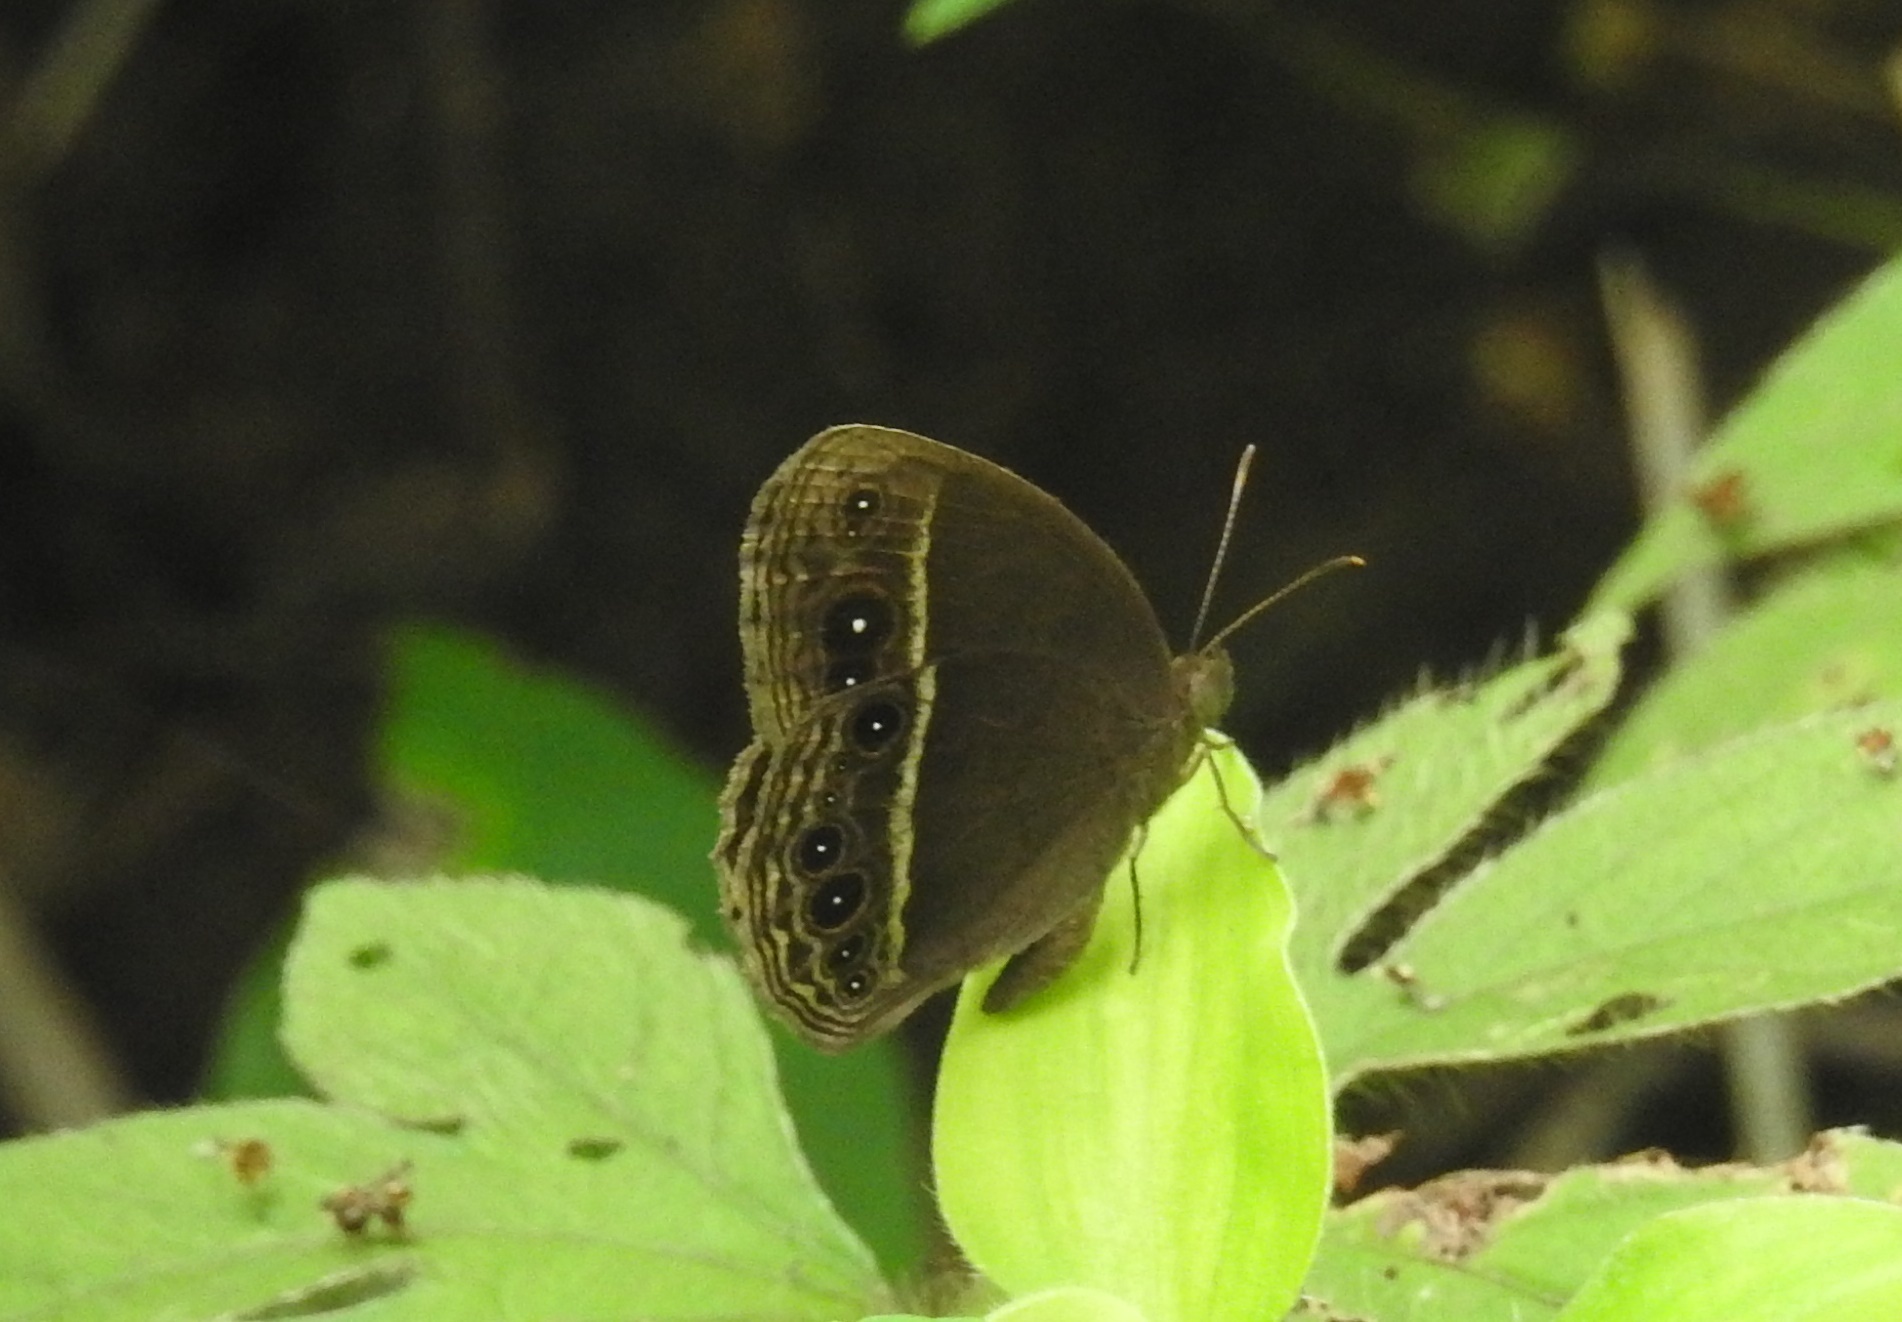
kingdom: Animalia
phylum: Arthropoda
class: Insecta
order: Lepidoptera
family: Nymphalidae
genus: Mycalesis
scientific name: Mycalesis mineus
